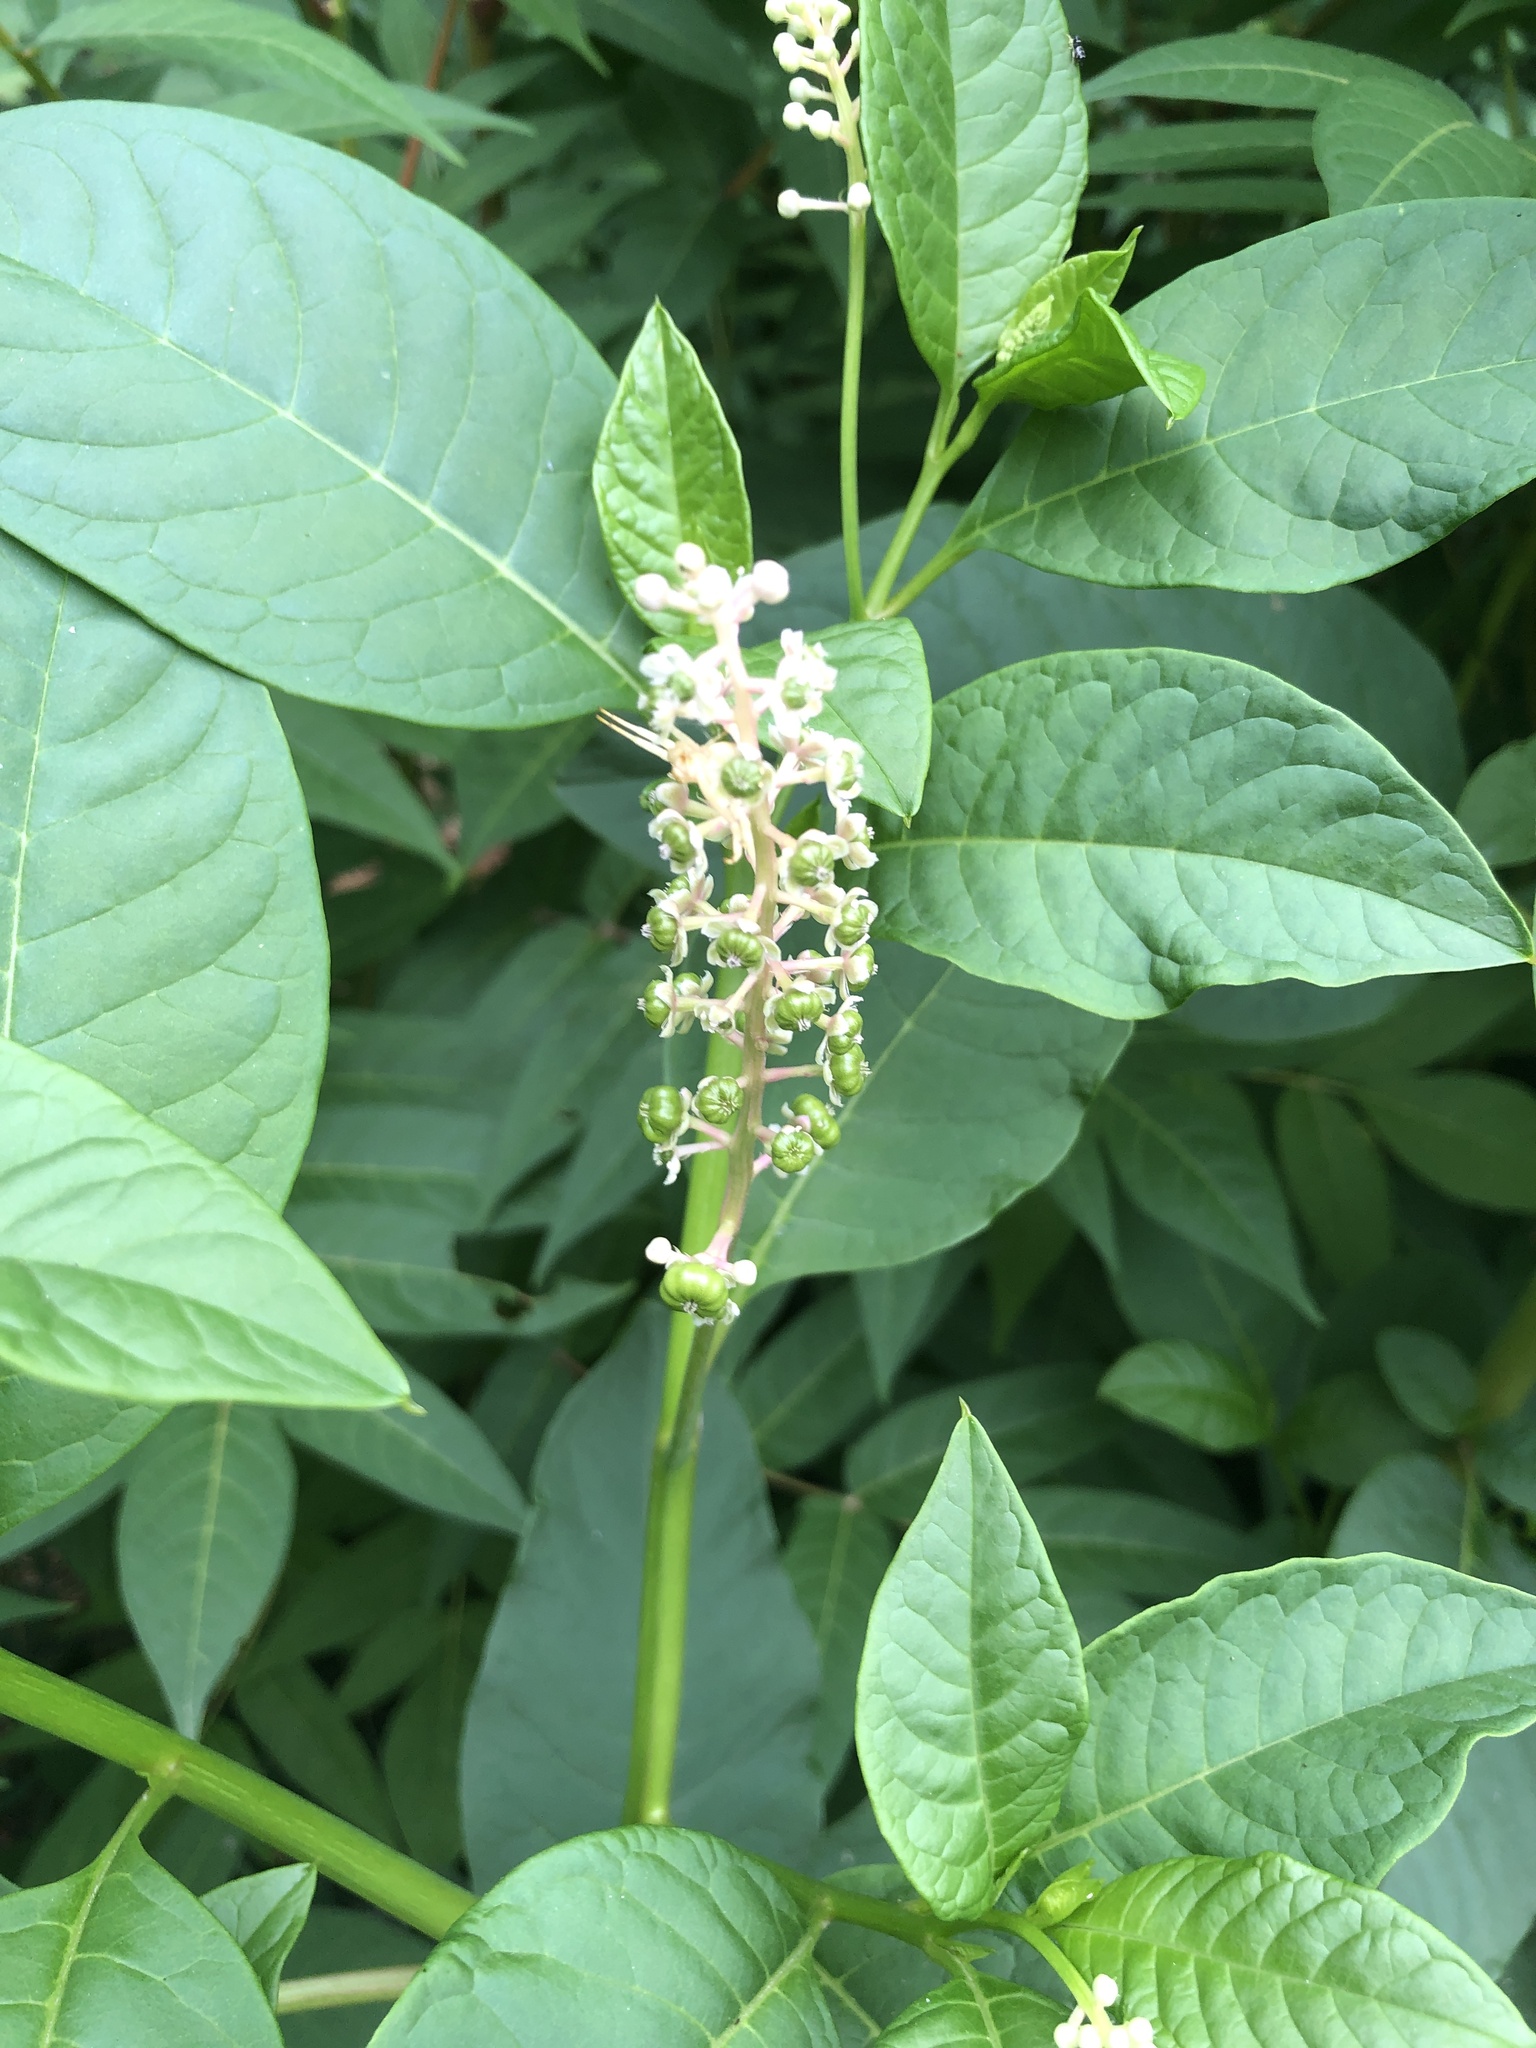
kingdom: Plantae
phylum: Tracheophyta
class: Magnoliopsida
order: Caryophyllales
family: Phytolaccaceae
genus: Phytolacca
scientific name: Phytolacca americana
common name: American pokeweed
